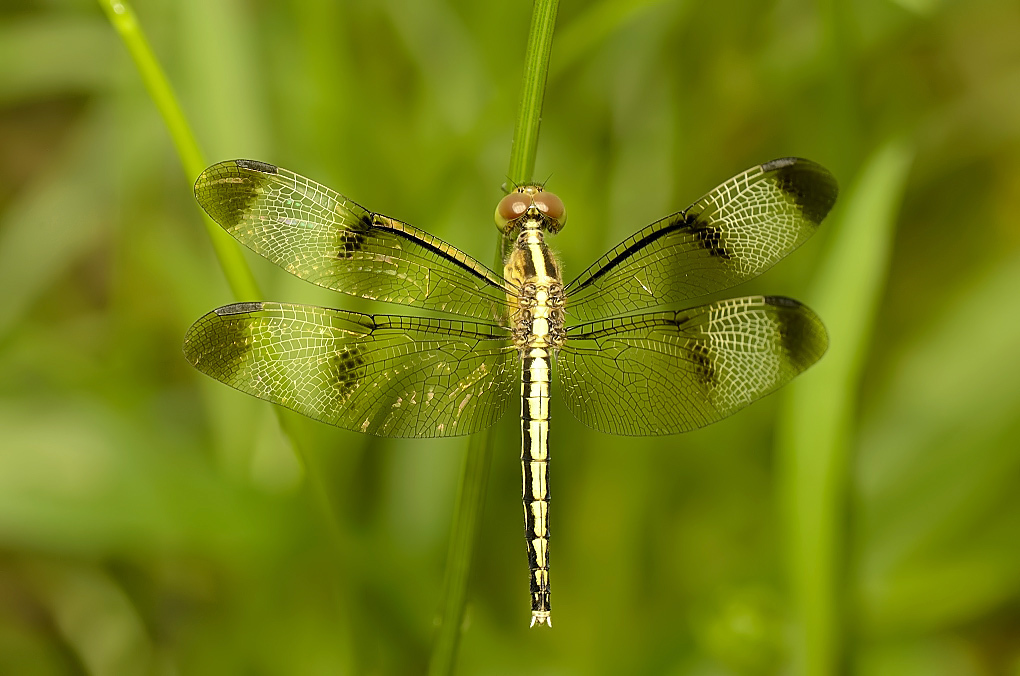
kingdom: Animalia
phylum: Arthropoda
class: Insecta
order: Odonata
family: Libellulidae
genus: Neurothemis
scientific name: Neurothemis tullia
